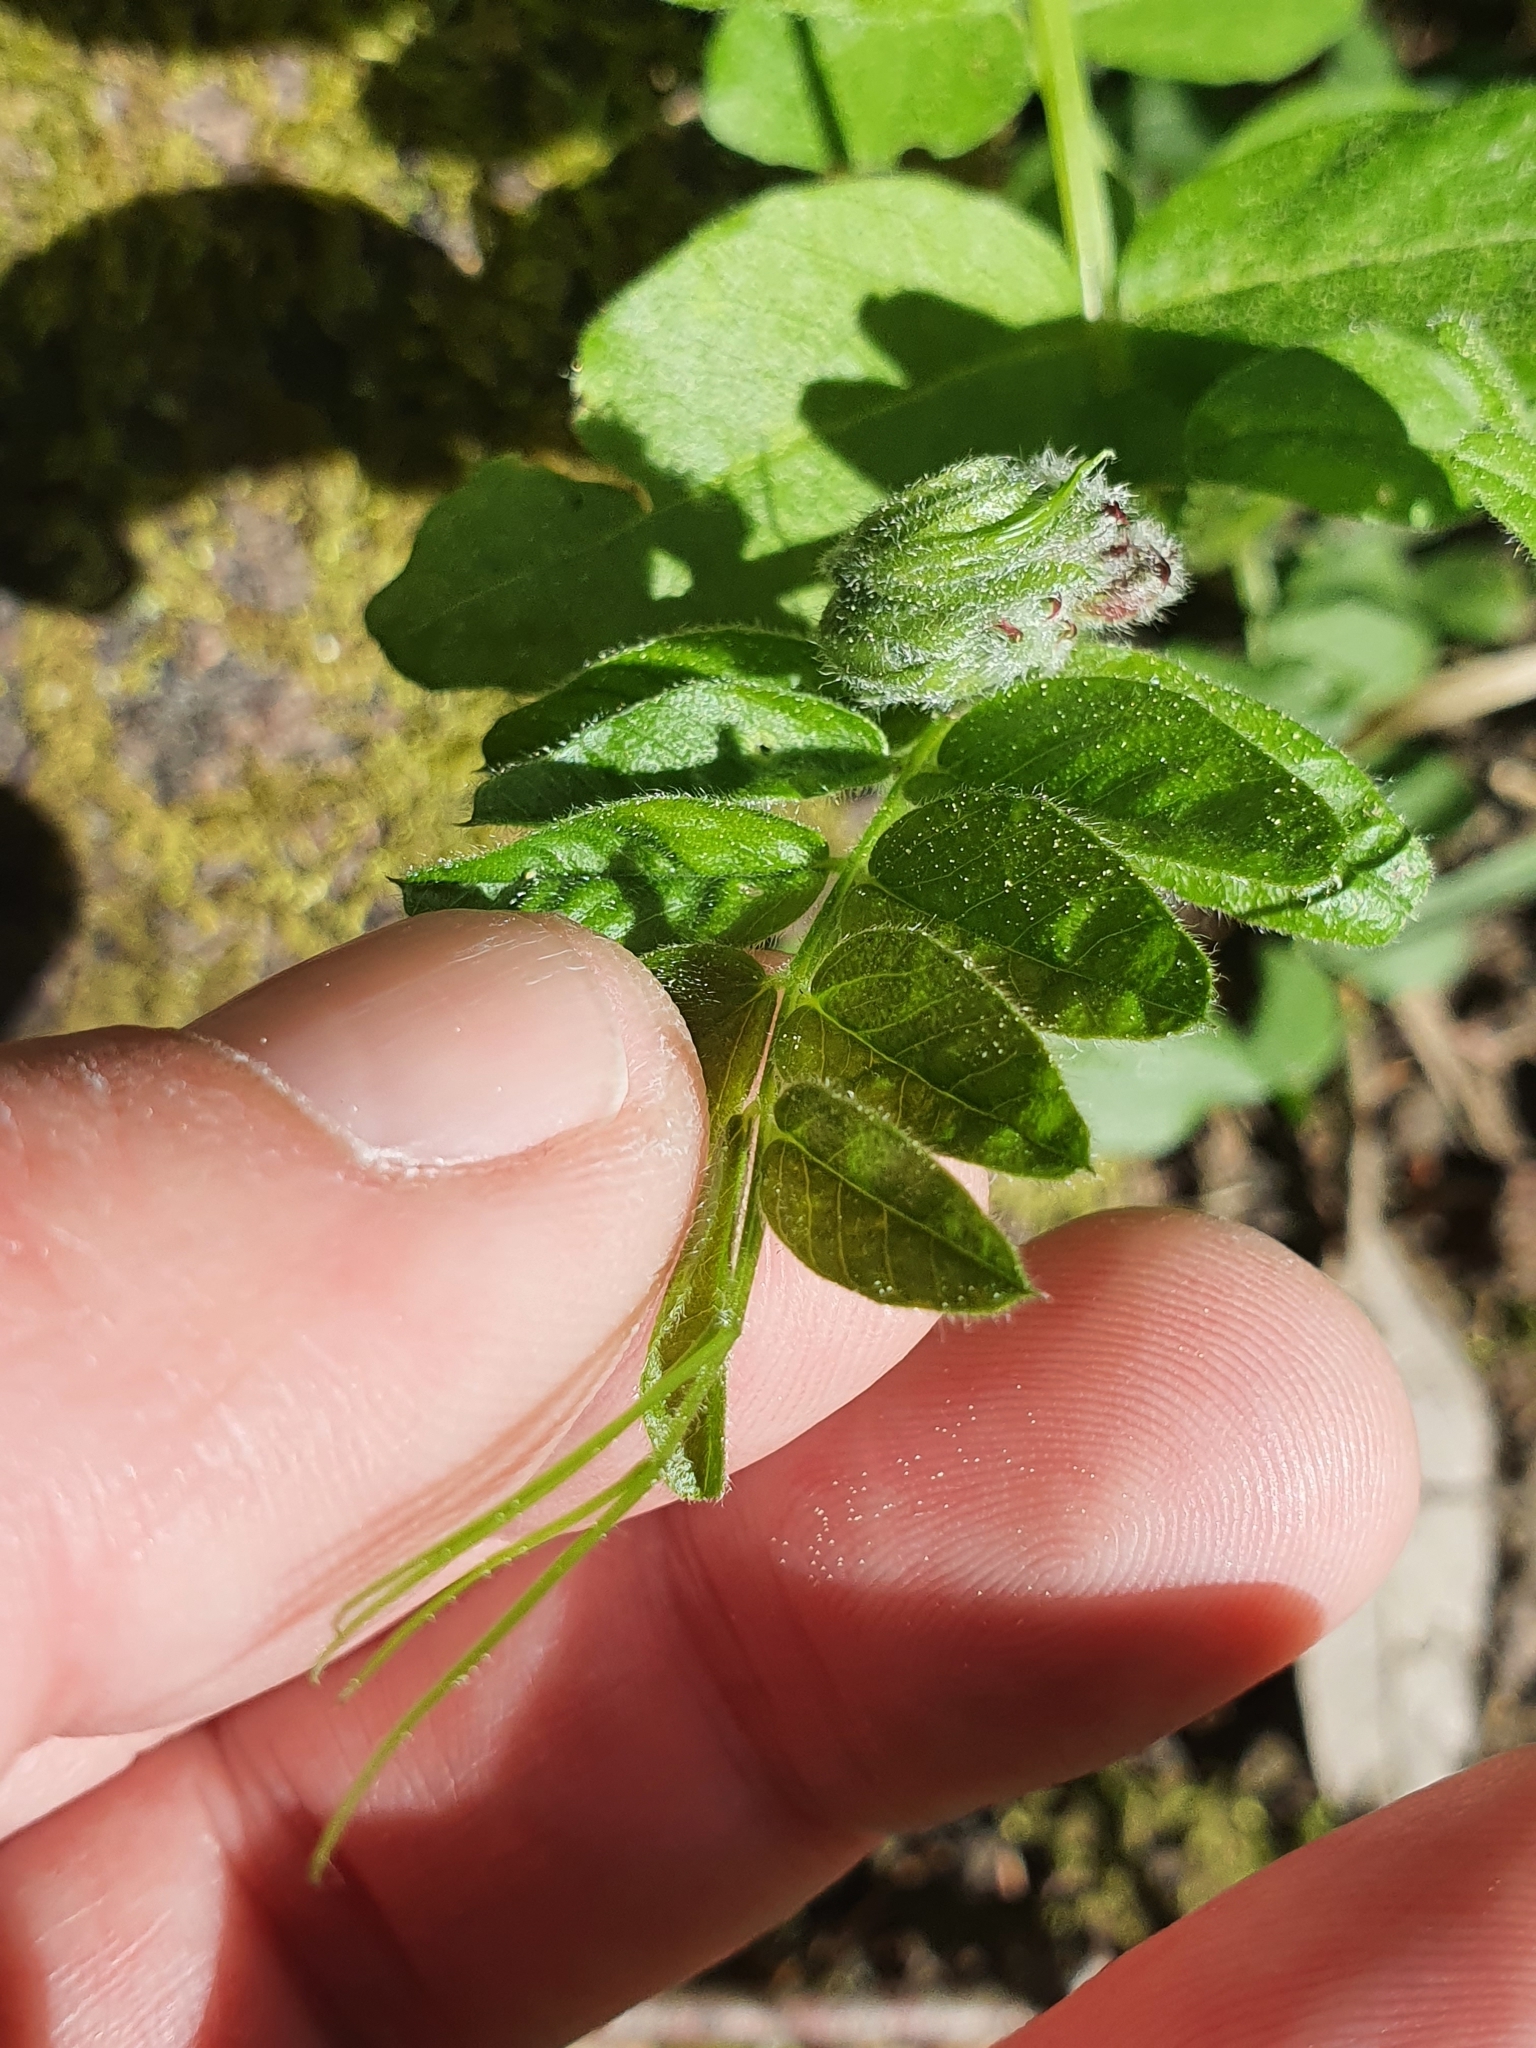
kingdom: Plantae
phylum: Tracheophyta
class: Magnoliopsida
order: Fabales
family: Fabaceae
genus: Vicia
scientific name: Vicia sepium
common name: Bush vetch
